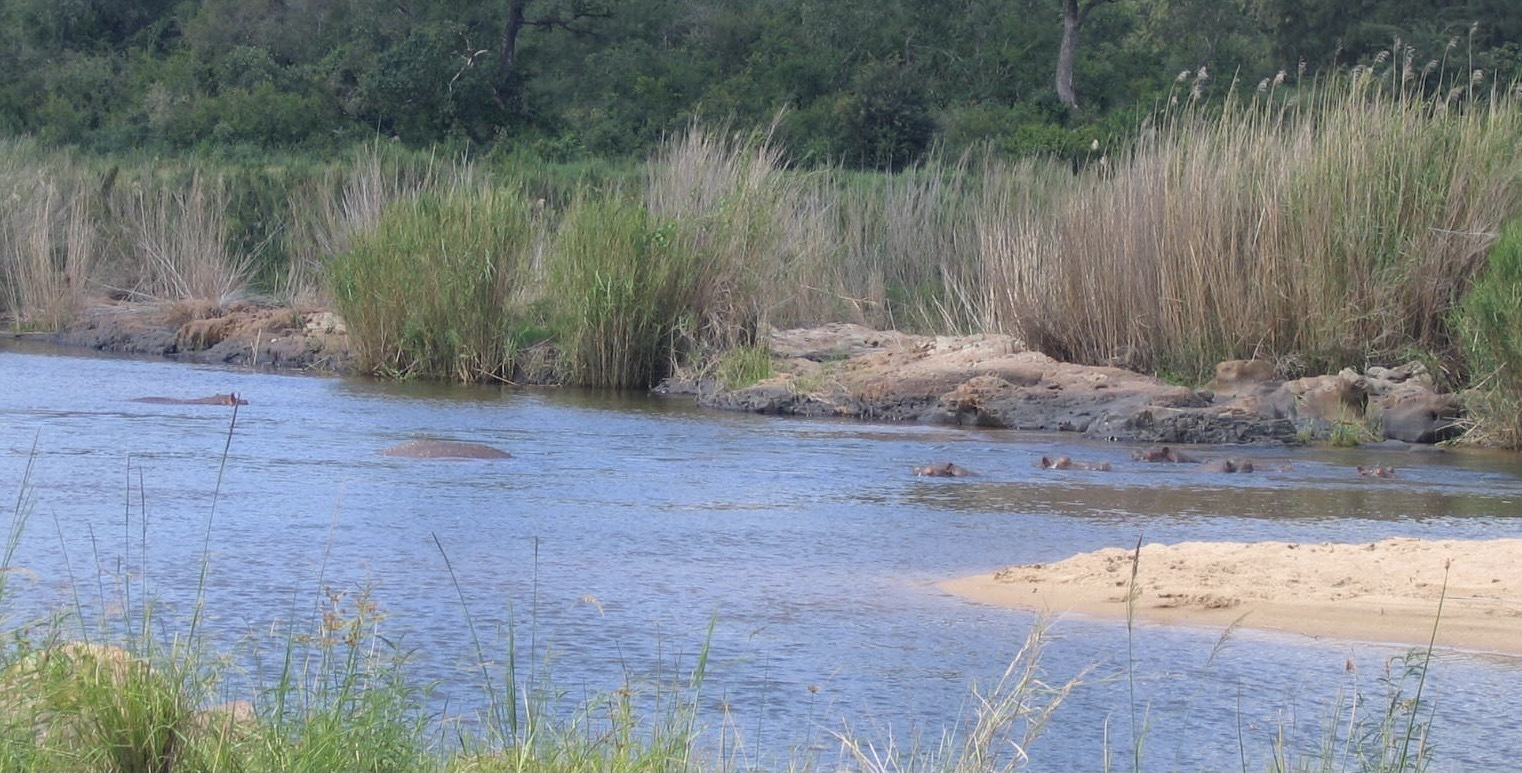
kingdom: Animalia
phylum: Chordata
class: Mammalia
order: Artiodactyla
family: Hippopotamidae
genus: Hippopotamus
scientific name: Hippopotamus amphibius
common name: Common hippopotamus
